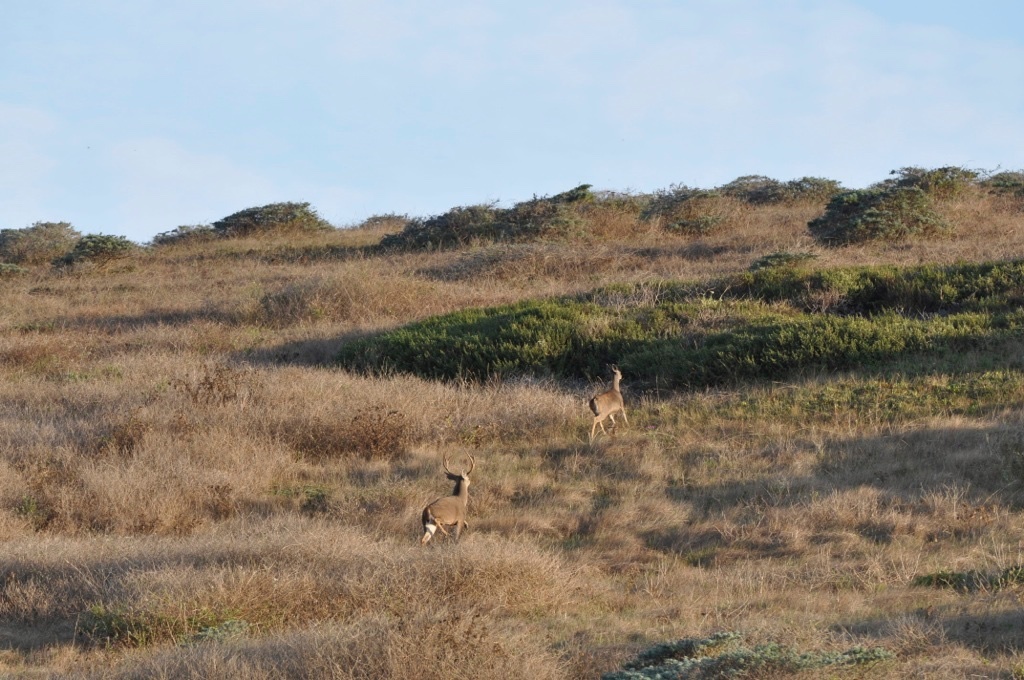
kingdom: Animalia
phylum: Chordata
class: Mammalia
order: Artiodactyla
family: Cervidae
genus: Odocoileus
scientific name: Odocoileus hemionus
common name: Mule deer
